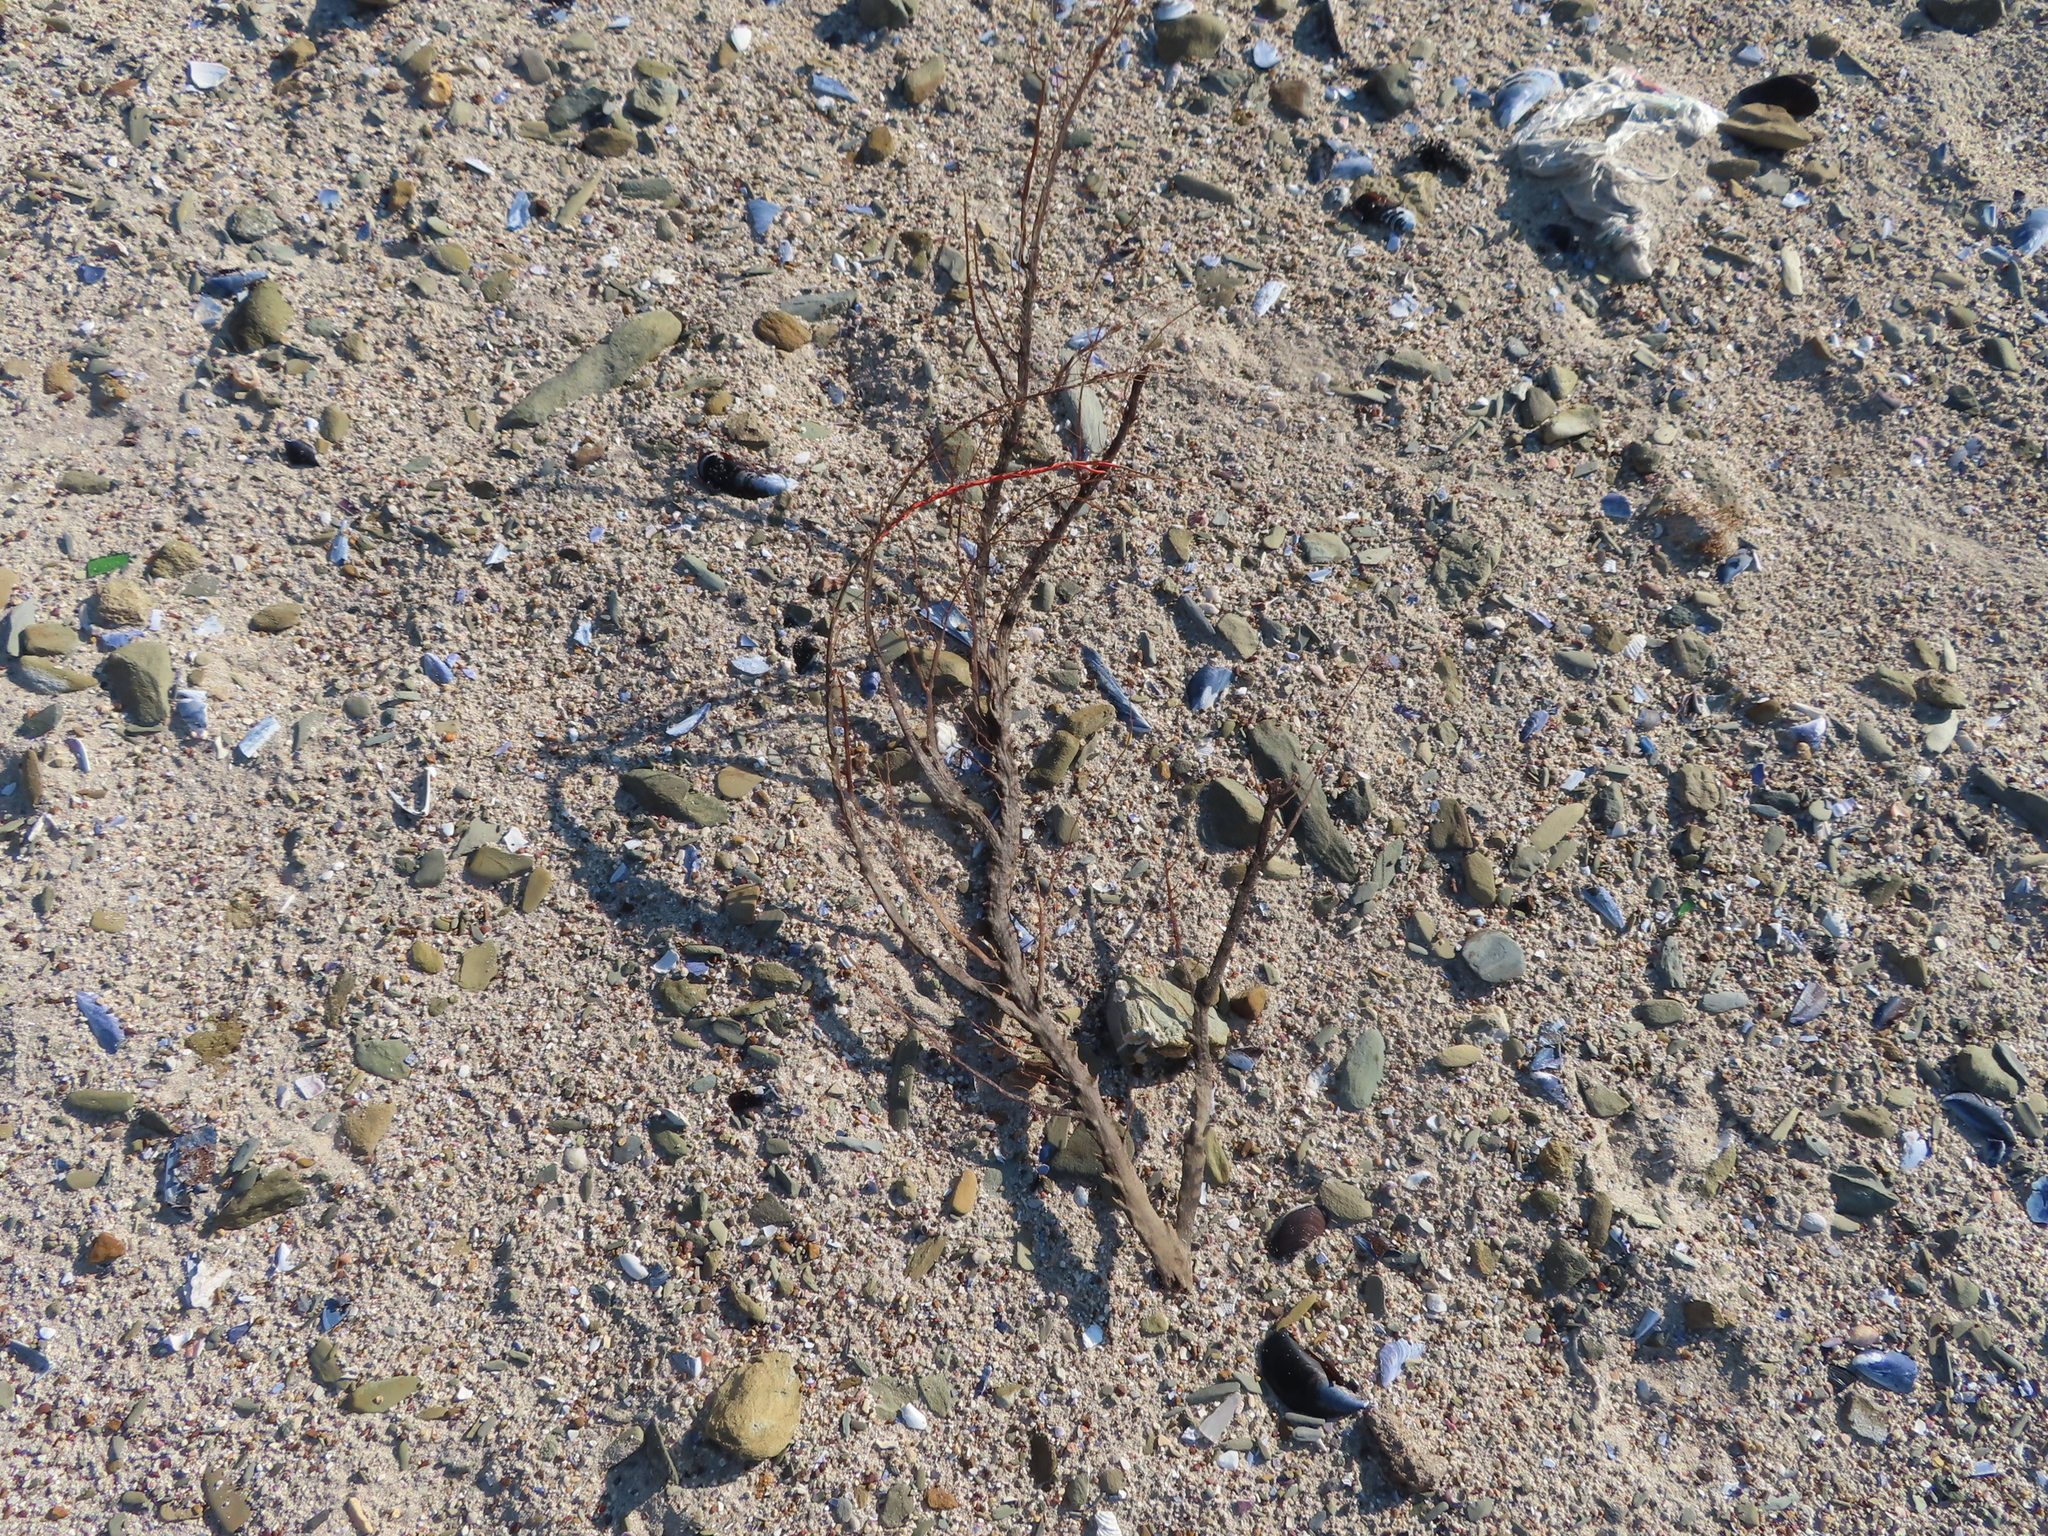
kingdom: Animalia
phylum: Cnidaria
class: Anthozoa
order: Malacalcyonacea
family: Gorgoniidae
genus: Leptogorgia
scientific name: Leptogorgia palma
